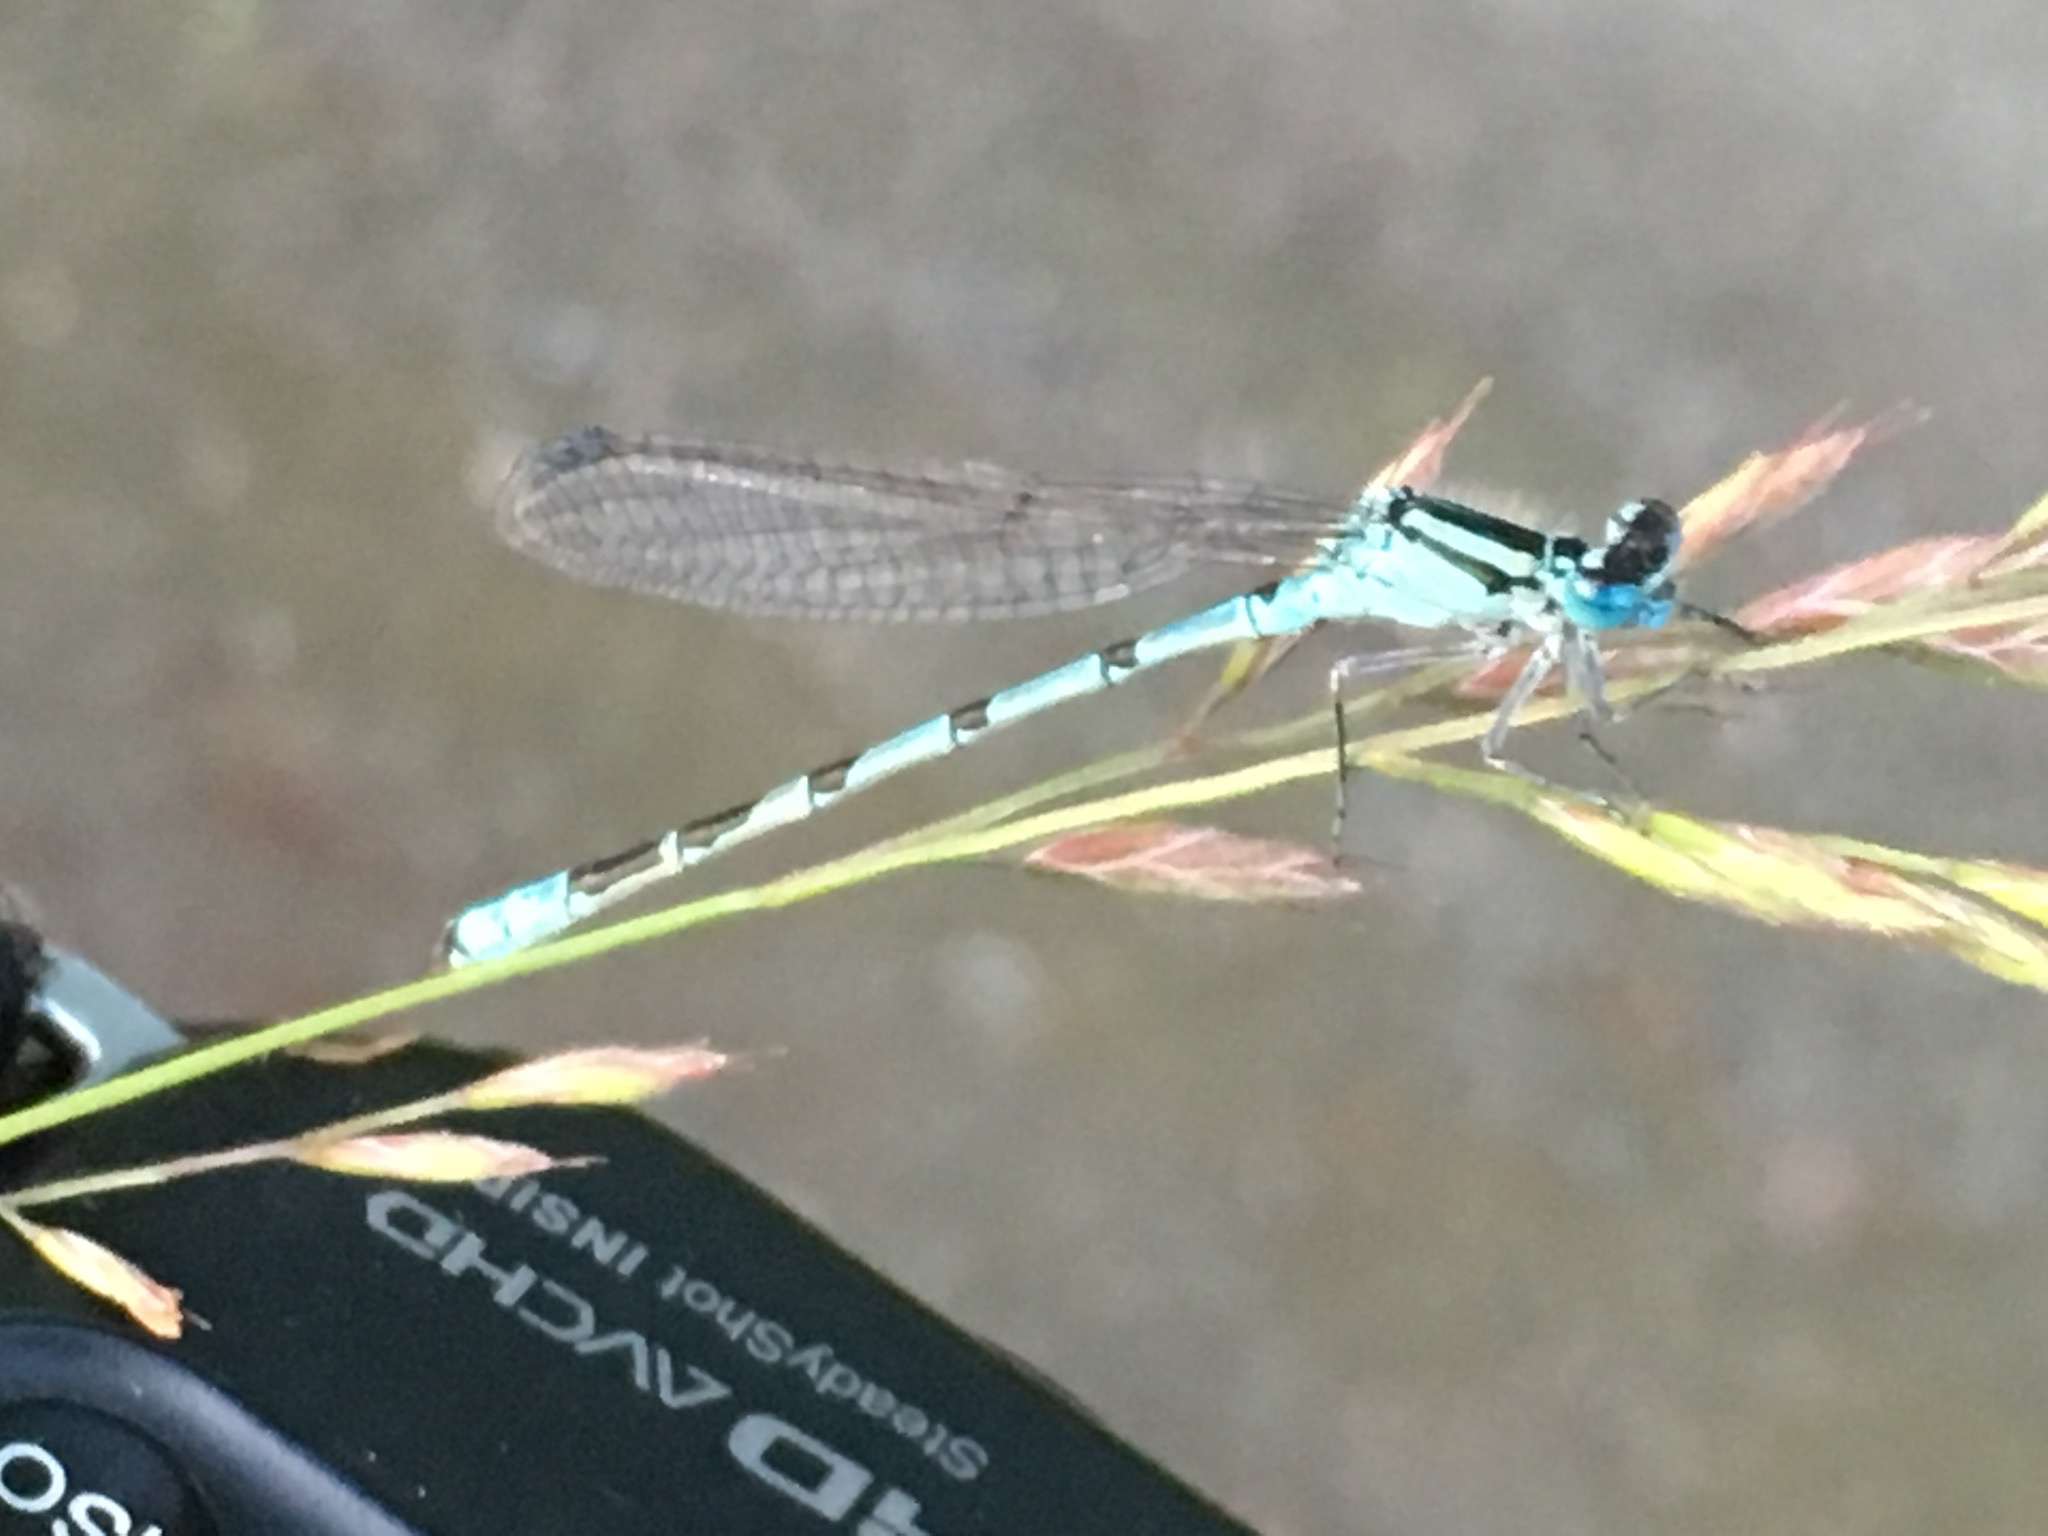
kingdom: Animalia
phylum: Arthropoda
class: Insecta
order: Odonata
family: Coenagrionidae
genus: Enallagma
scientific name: Enallagma cyathigerum
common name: Common blue damselfly
